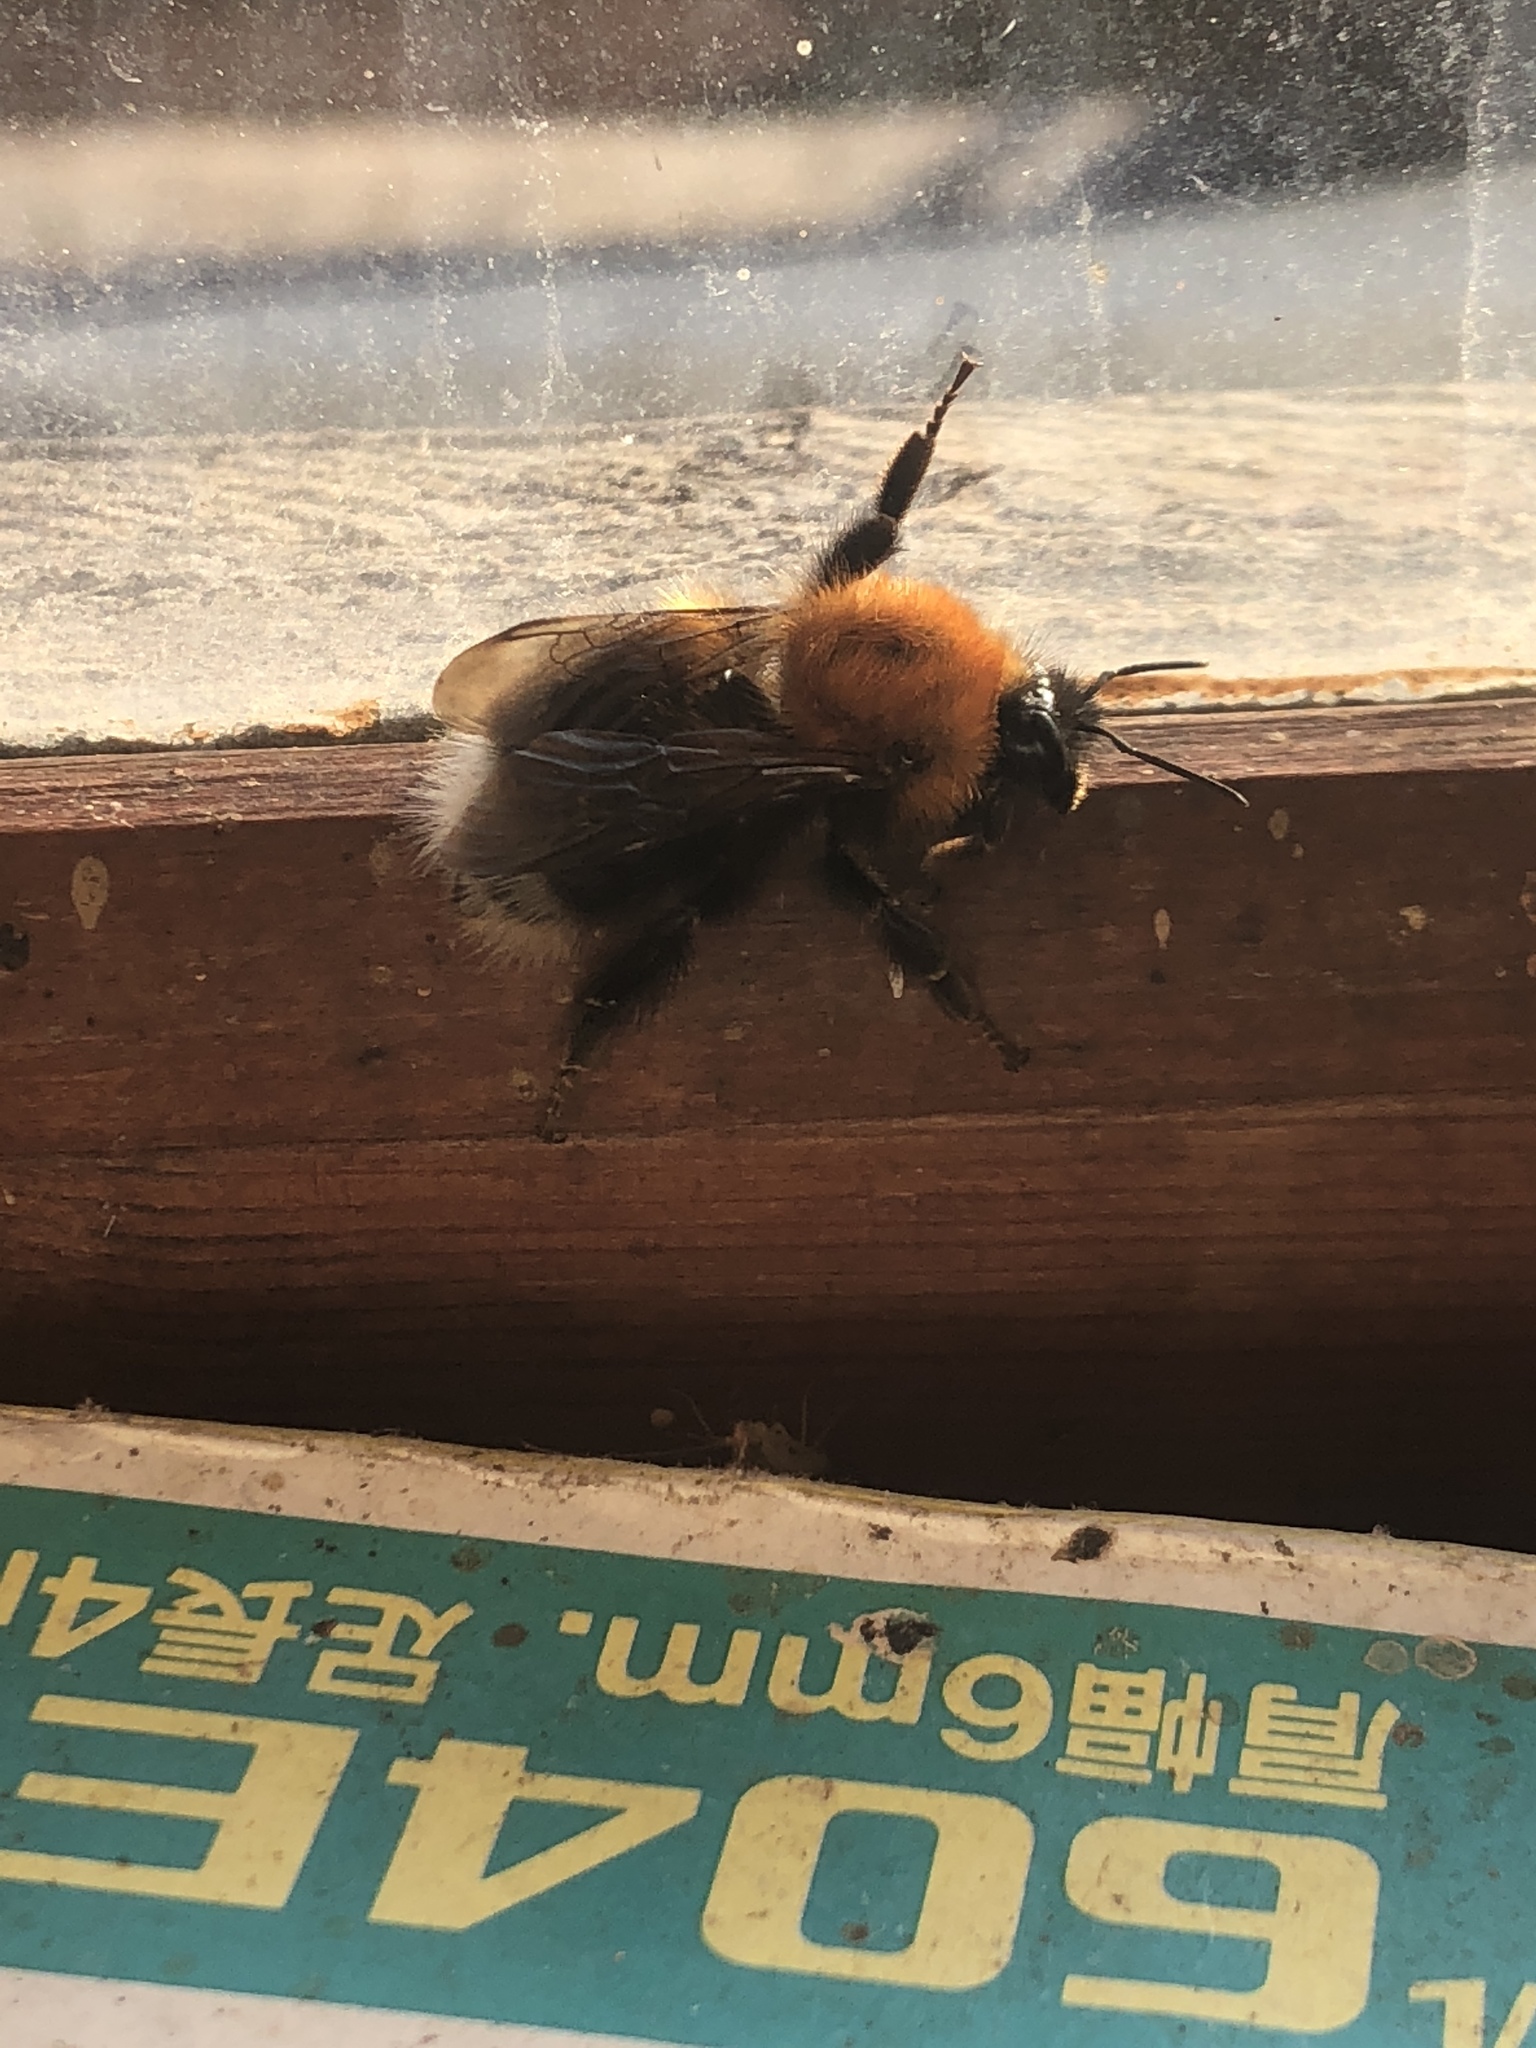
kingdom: Animalia
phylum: Arthropoda
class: Insecta
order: Hymenoptera
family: Apidae
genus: Bombus
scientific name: Bombus hypnorum
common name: New garden bumblebee
